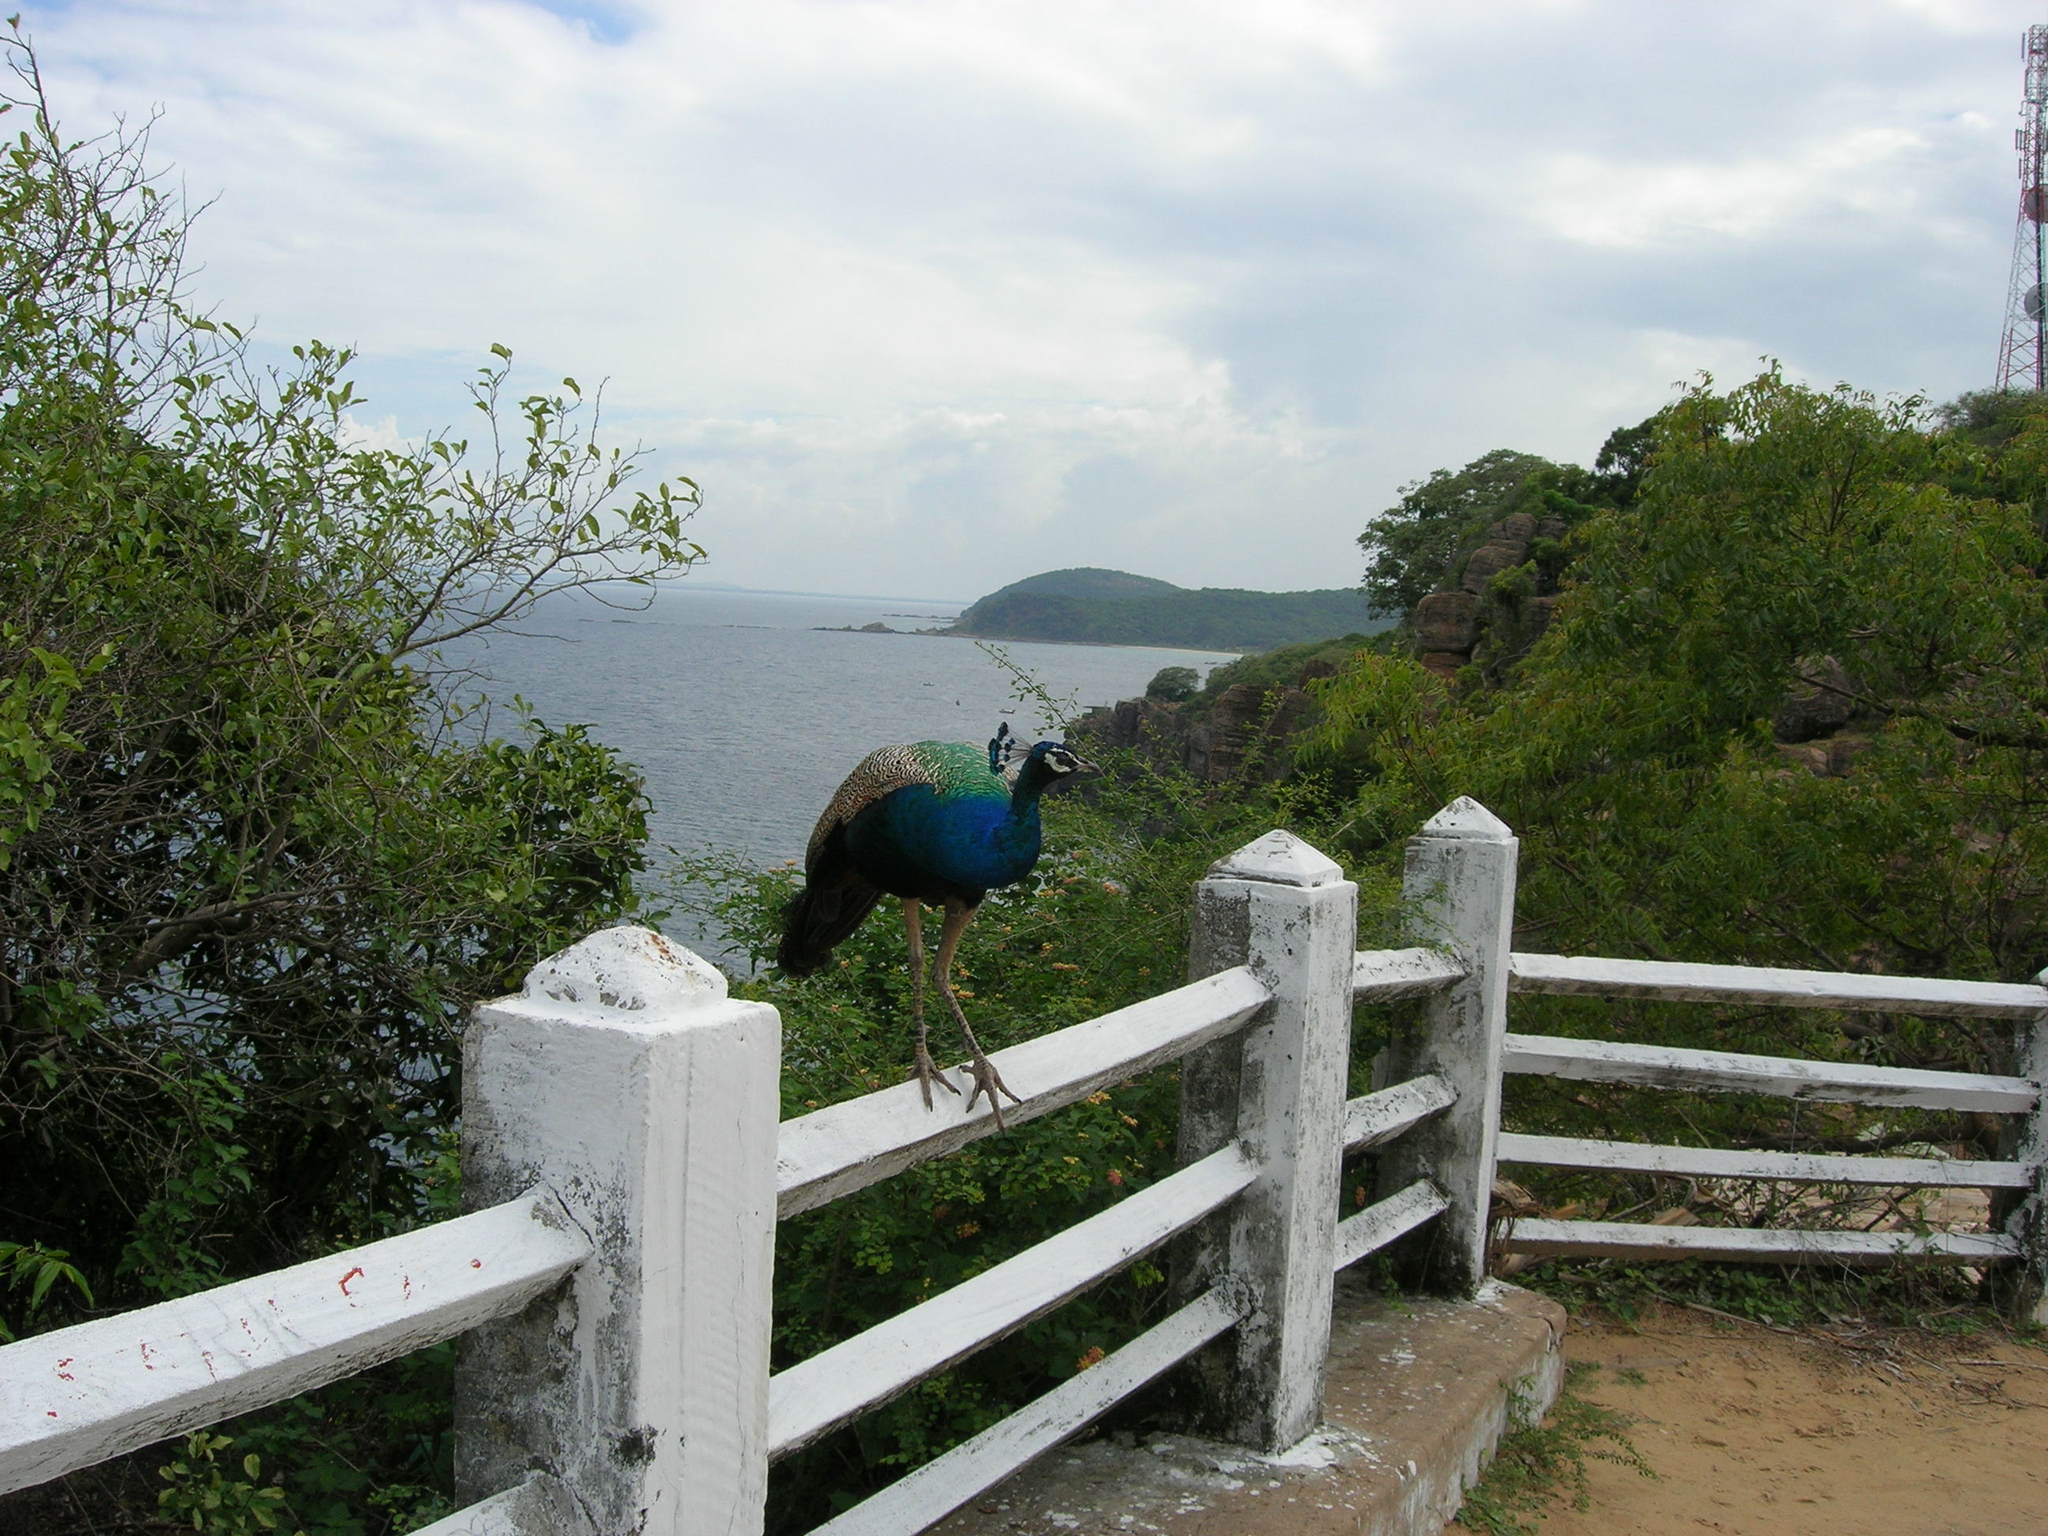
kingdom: Animalia
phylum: Chordata
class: Aves
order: Galliformes
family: Phasianidae
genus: Pavo
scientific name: Pavo cristatus
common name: Indian peafowl
